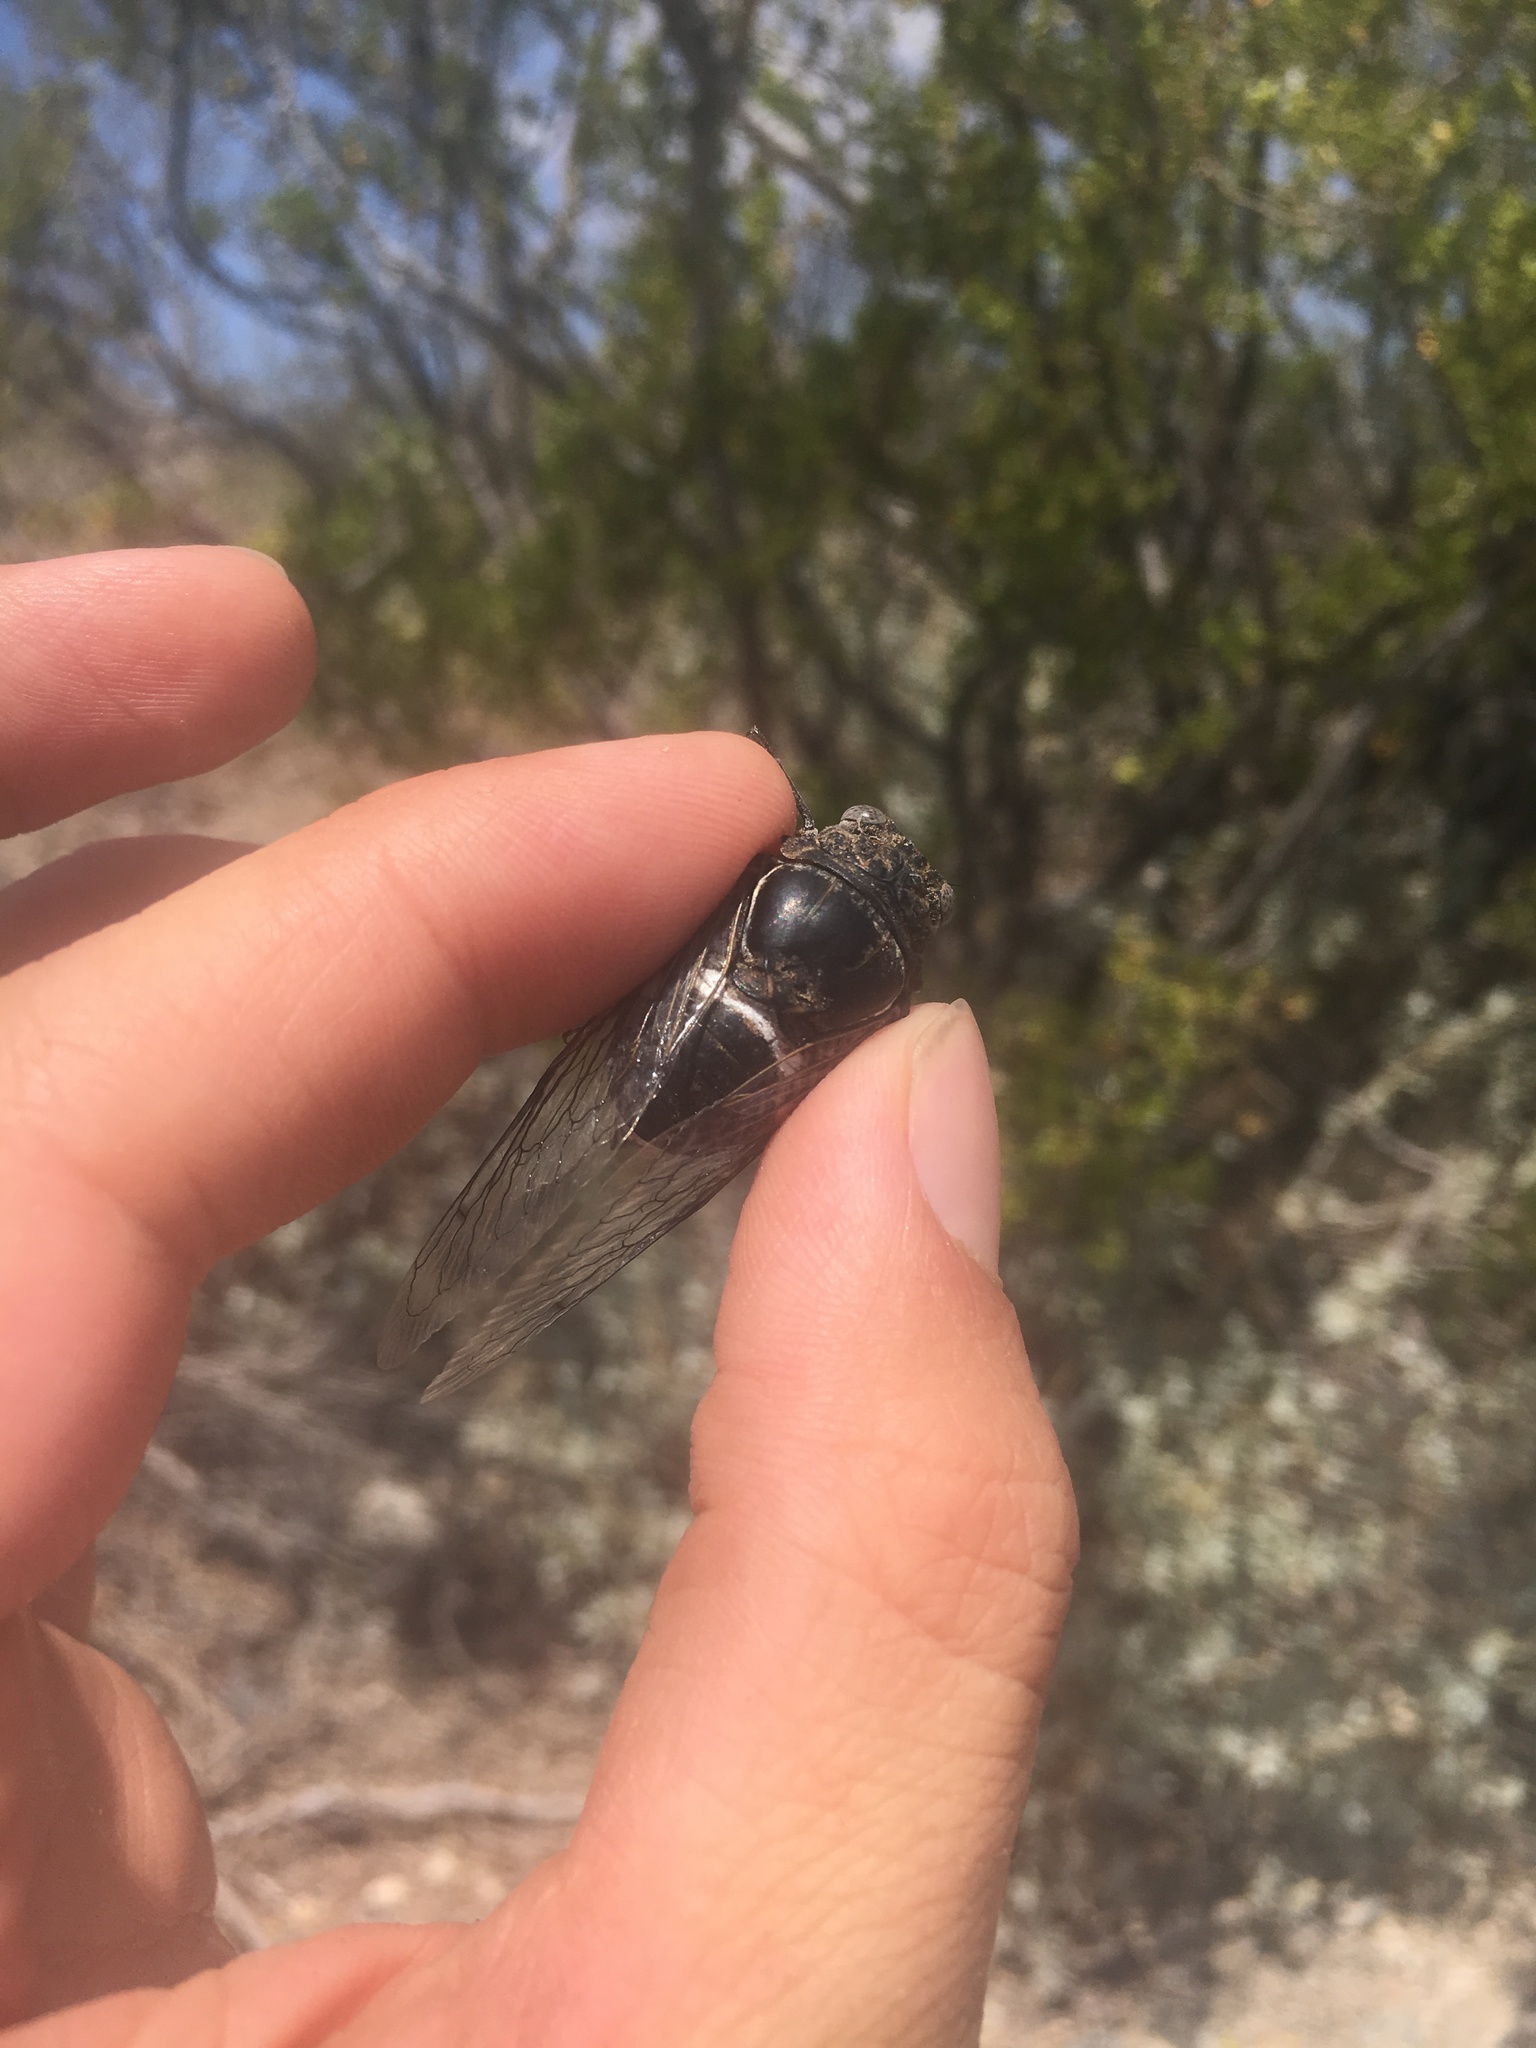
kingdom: Animalia
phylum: Arthropoda
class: Insecta
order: Hemiptera
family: Cicadidae
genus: Cacama
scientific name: Cacama valvata
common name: Cactus dodger
